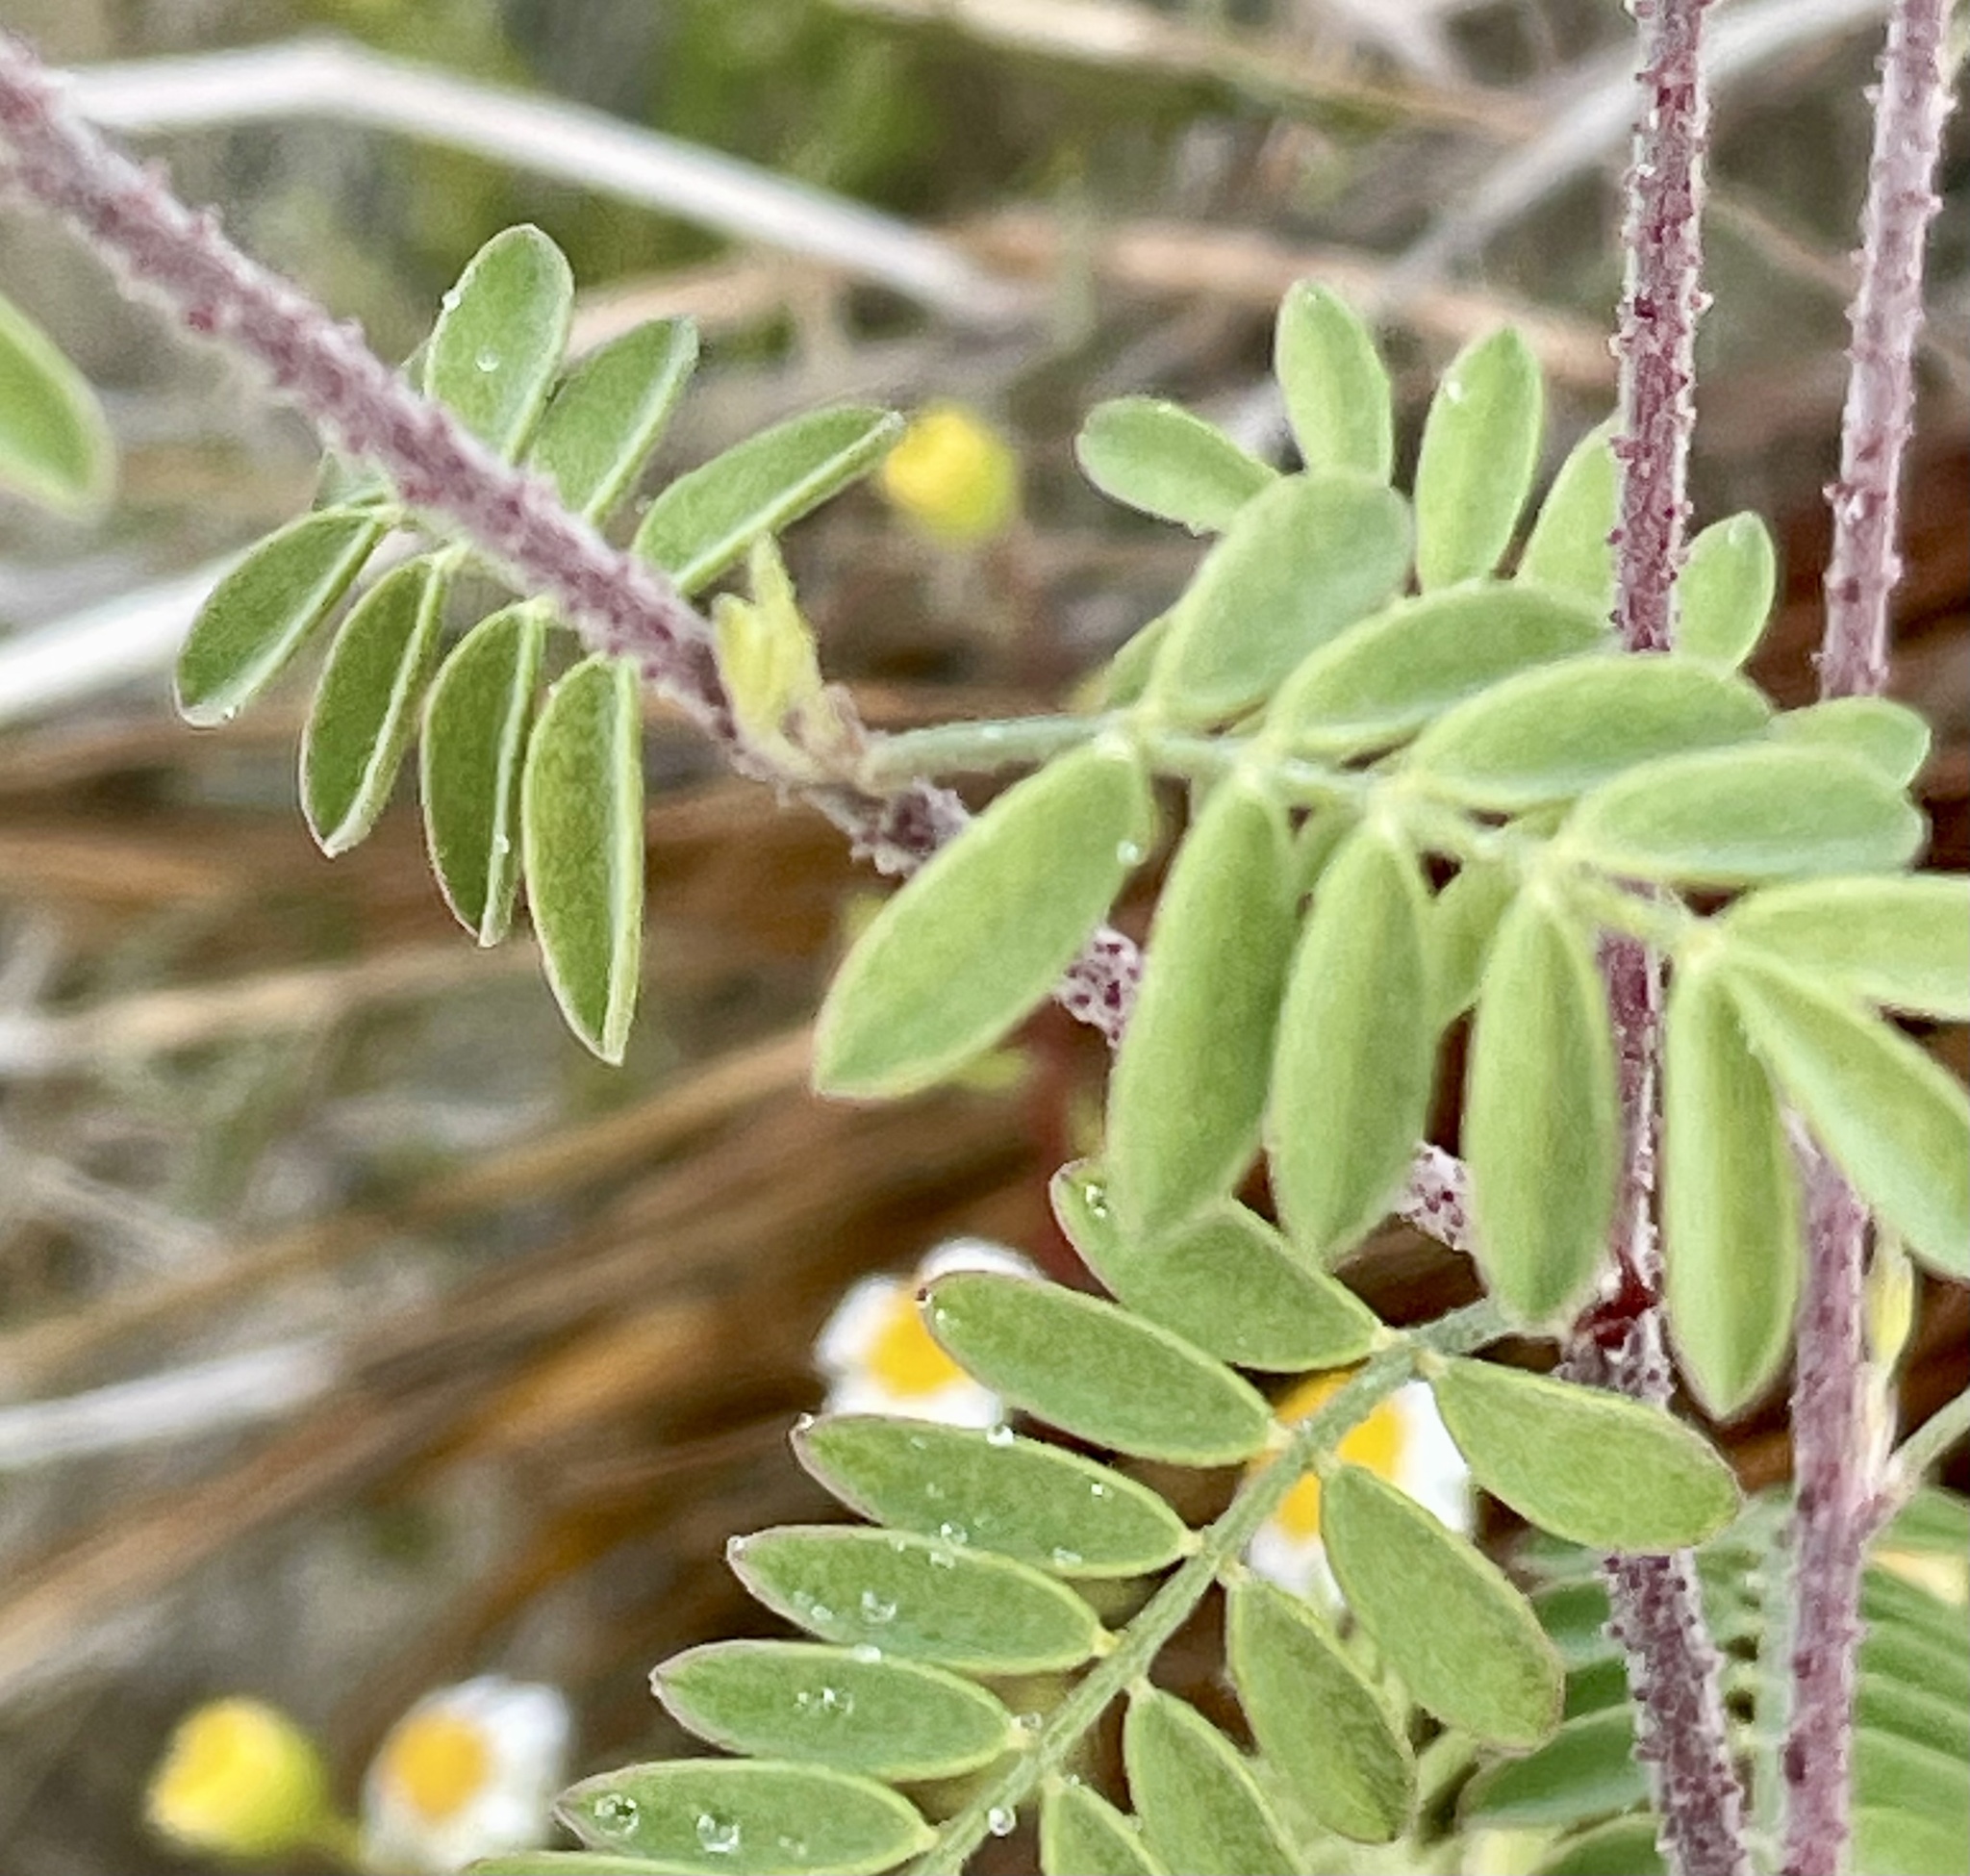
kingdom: Plantae
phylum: Tracheophyta
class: Magnoliopsida
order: Fabales
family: Fabaceae
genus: Dalea
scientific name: Dalea bicolor
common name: Silver prairie-clover
